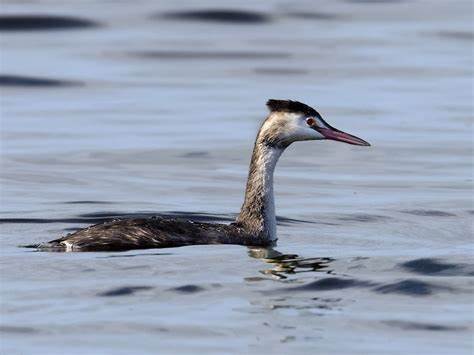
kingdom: Animalia
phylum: Chordata
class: Aves
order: Podicipediformes
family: Podicipedidae
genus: Podiceps
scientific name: Podiceps cristatus
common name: Great crested grebe
